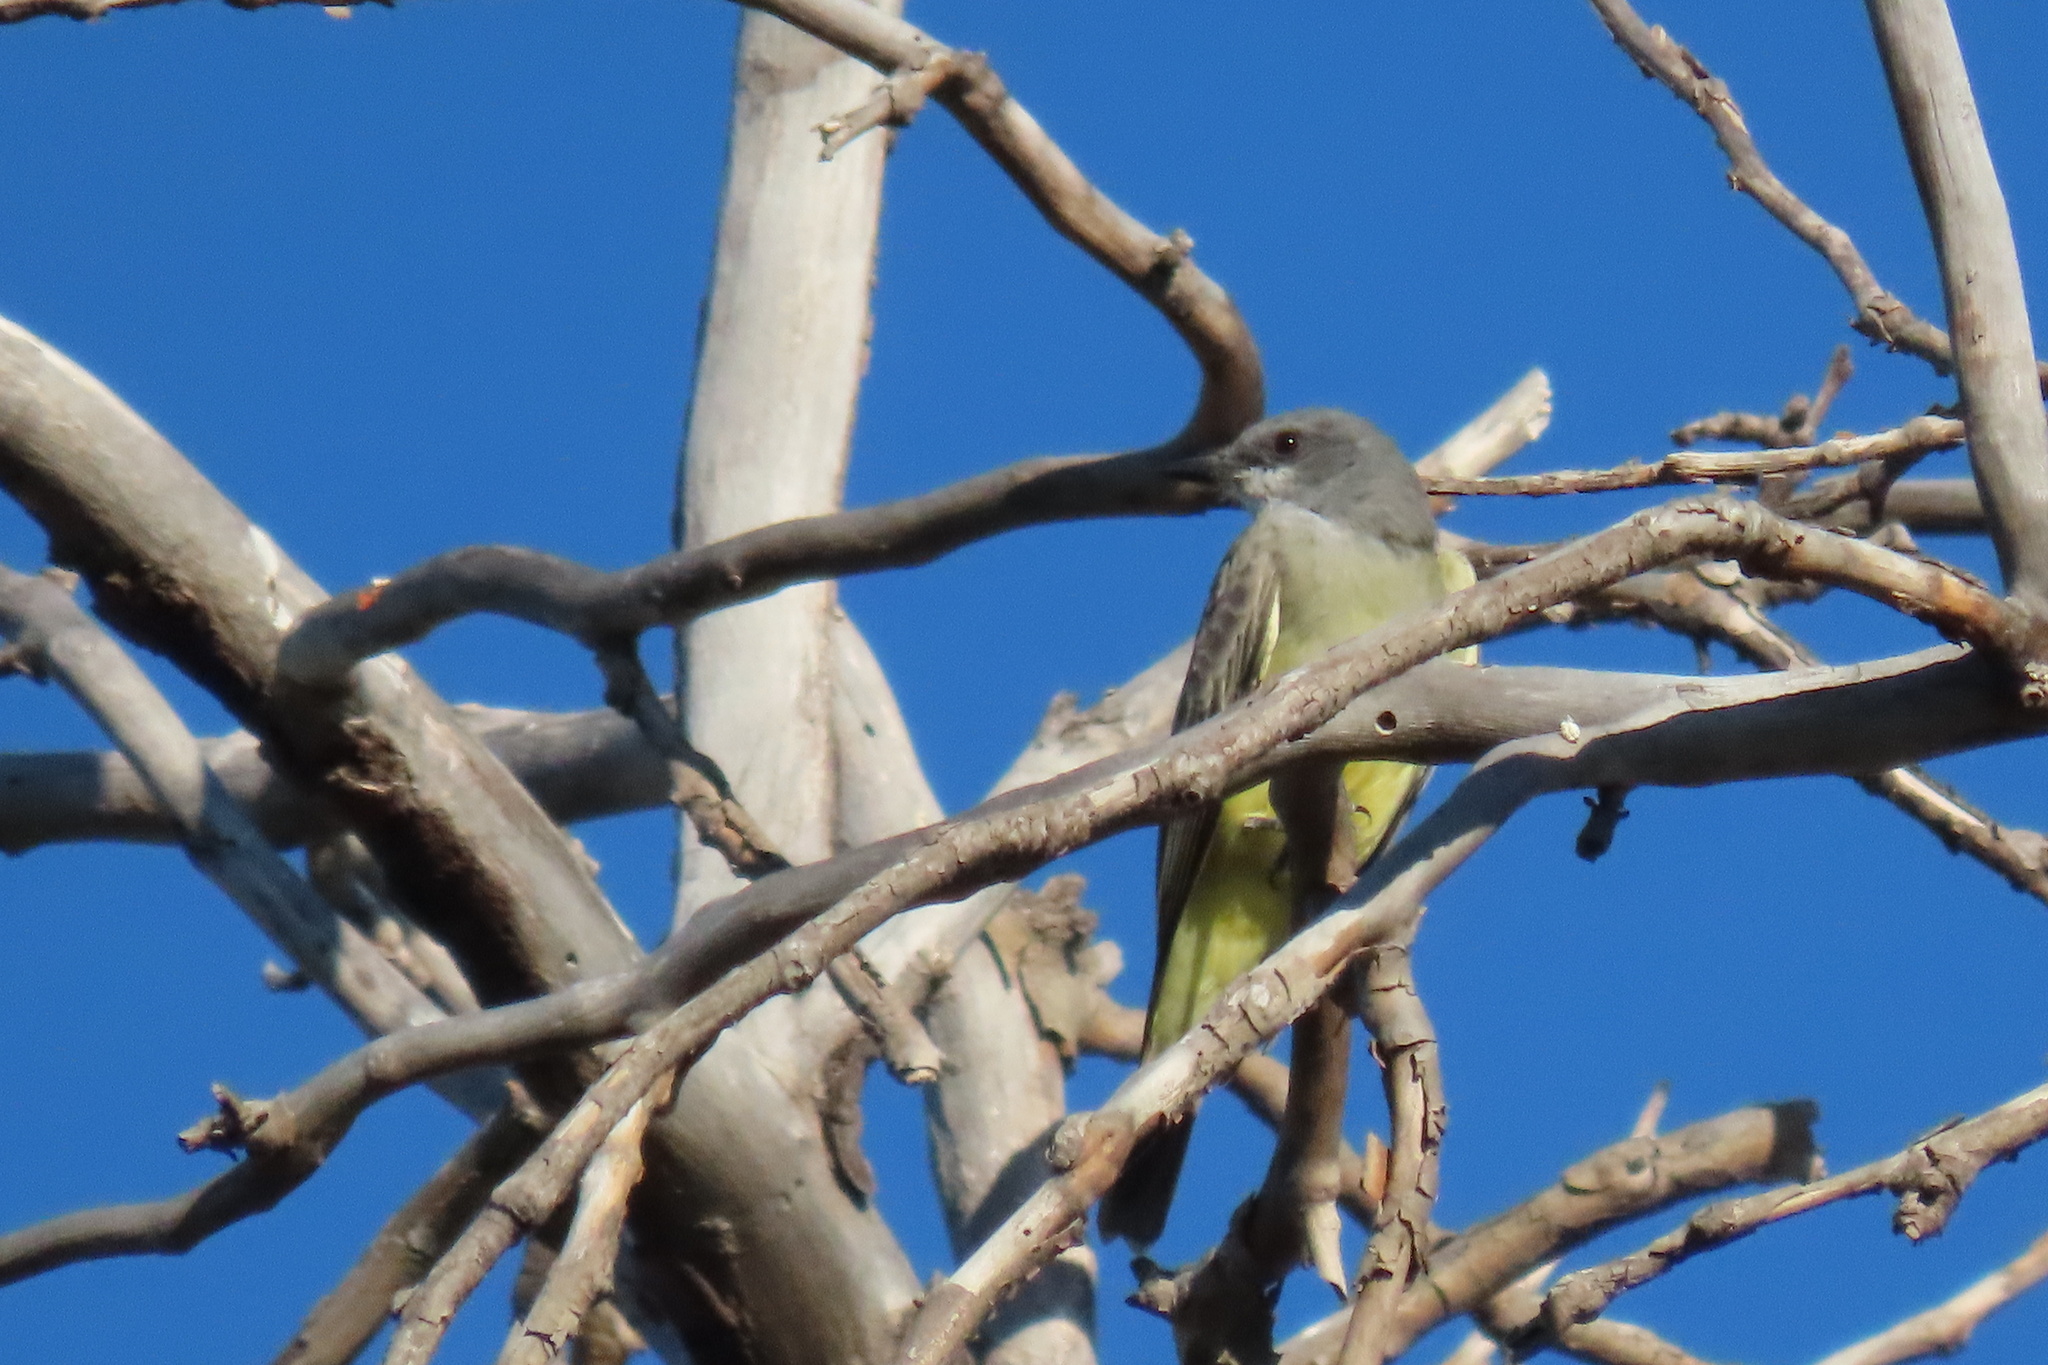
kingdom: Animalia
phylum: Chordata
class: Aves
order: Passeriformes
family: Tyrannidae
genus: Tyrannus
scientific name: Tyrannus vociferans
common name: Cassin's kingbird
